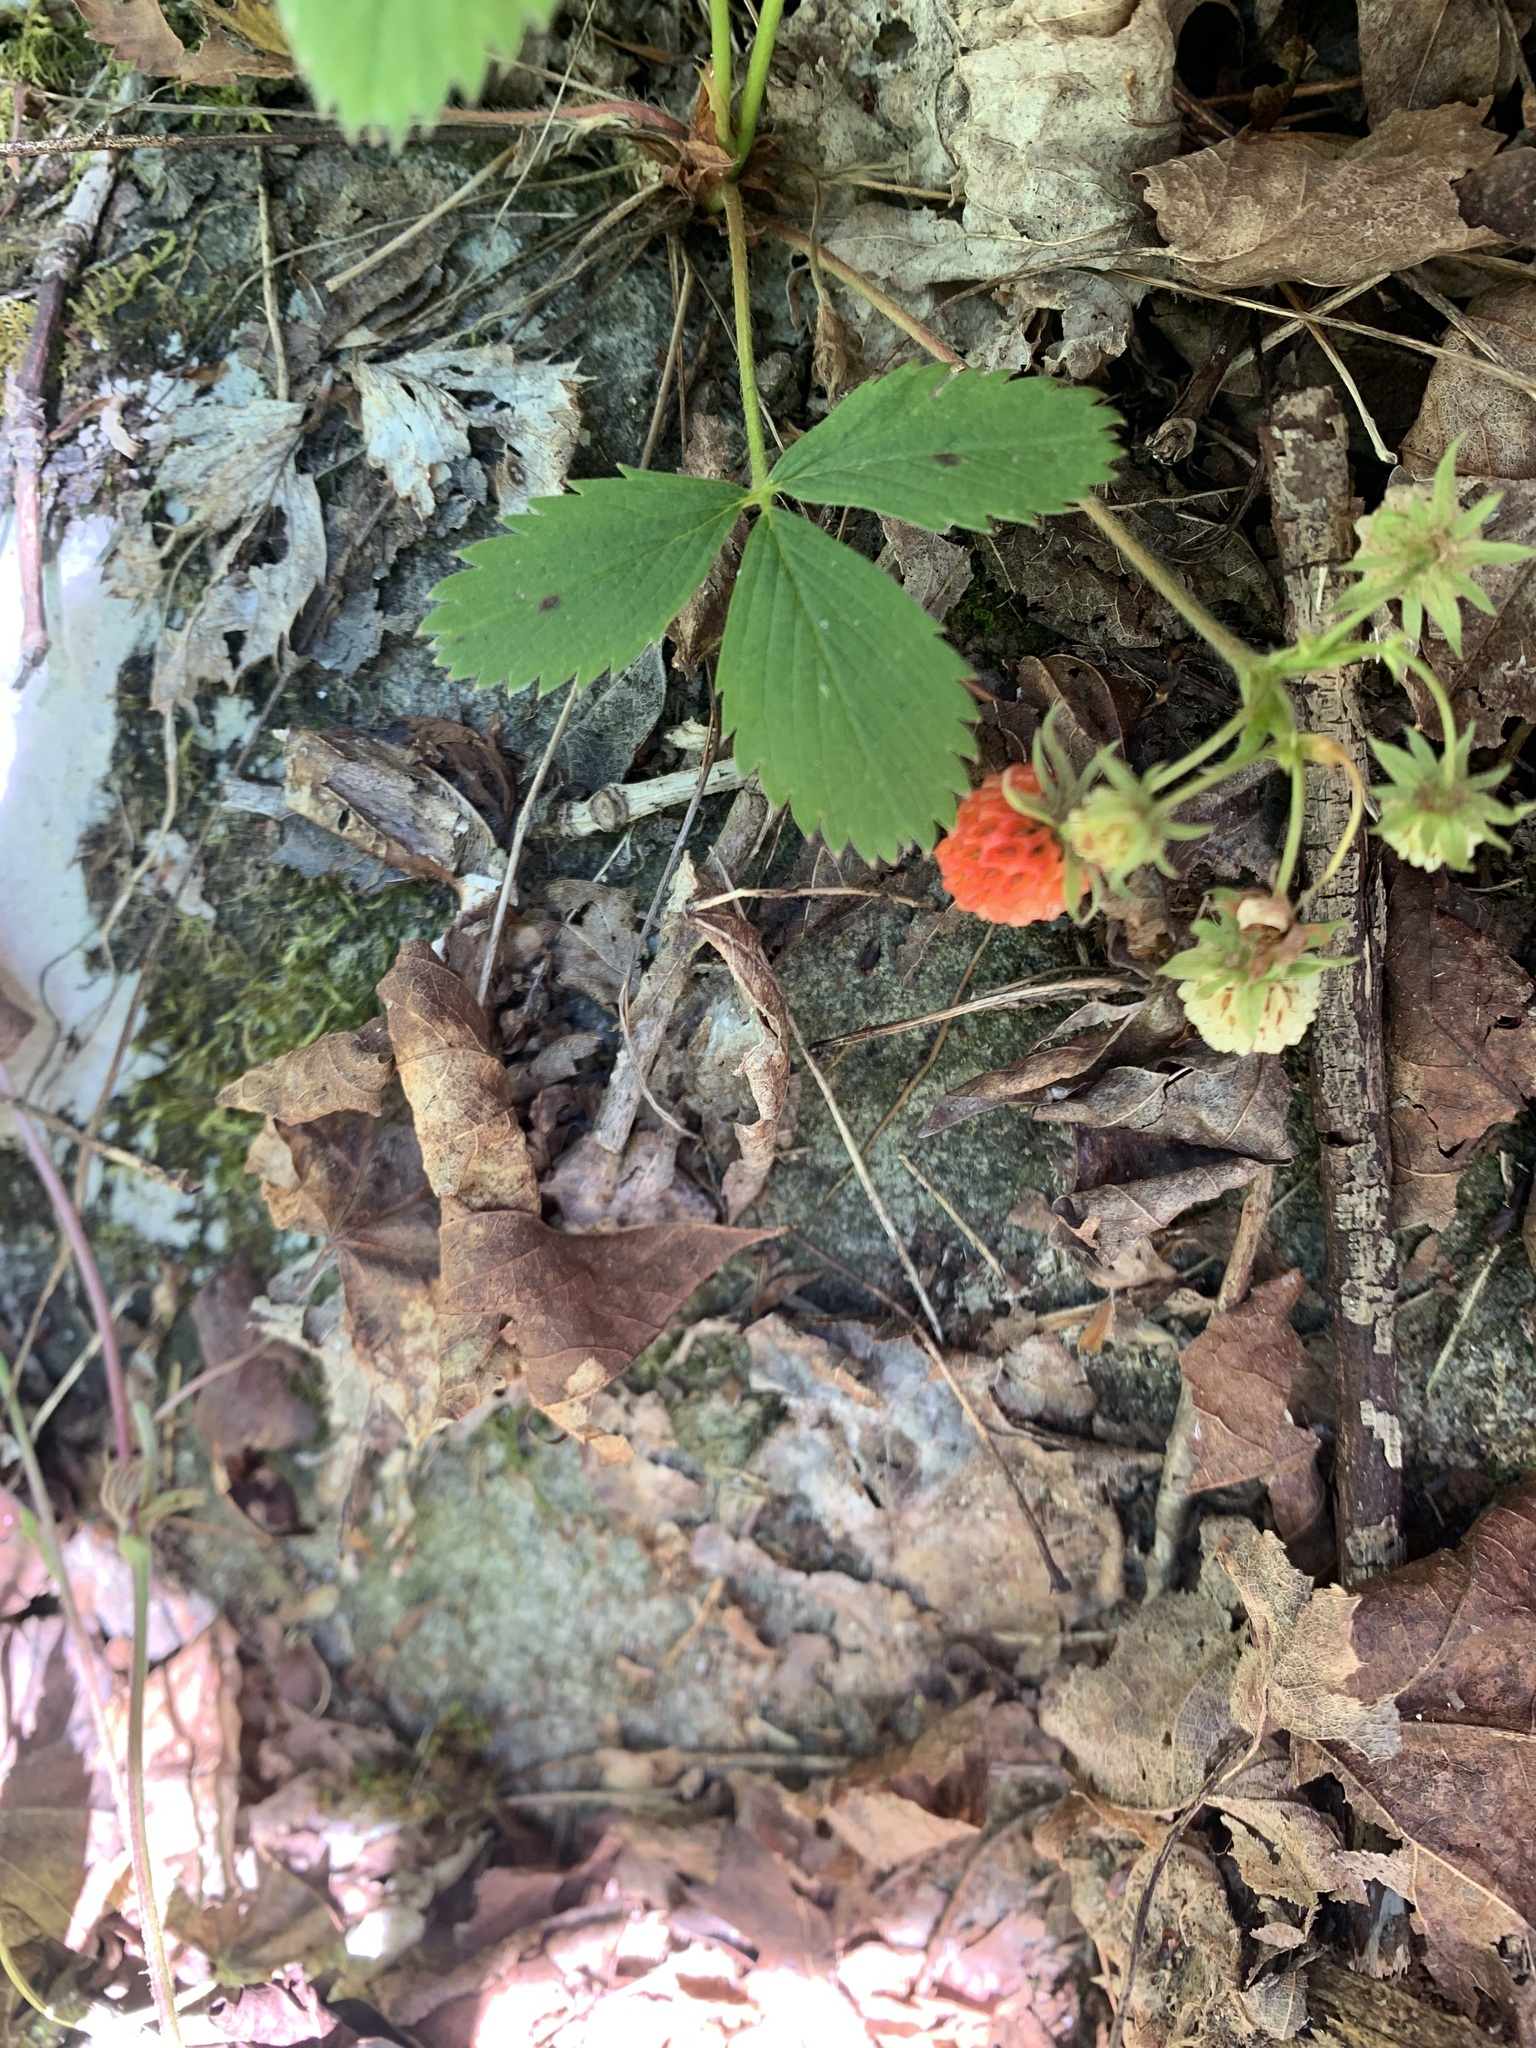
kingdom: Plantae
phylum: Tracheophyta
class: Magnoliopsida
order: Rosales
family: Rosaceae
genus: Fragaria
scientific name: Fragaria virginiana
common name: Thickleaved wild strawberry
